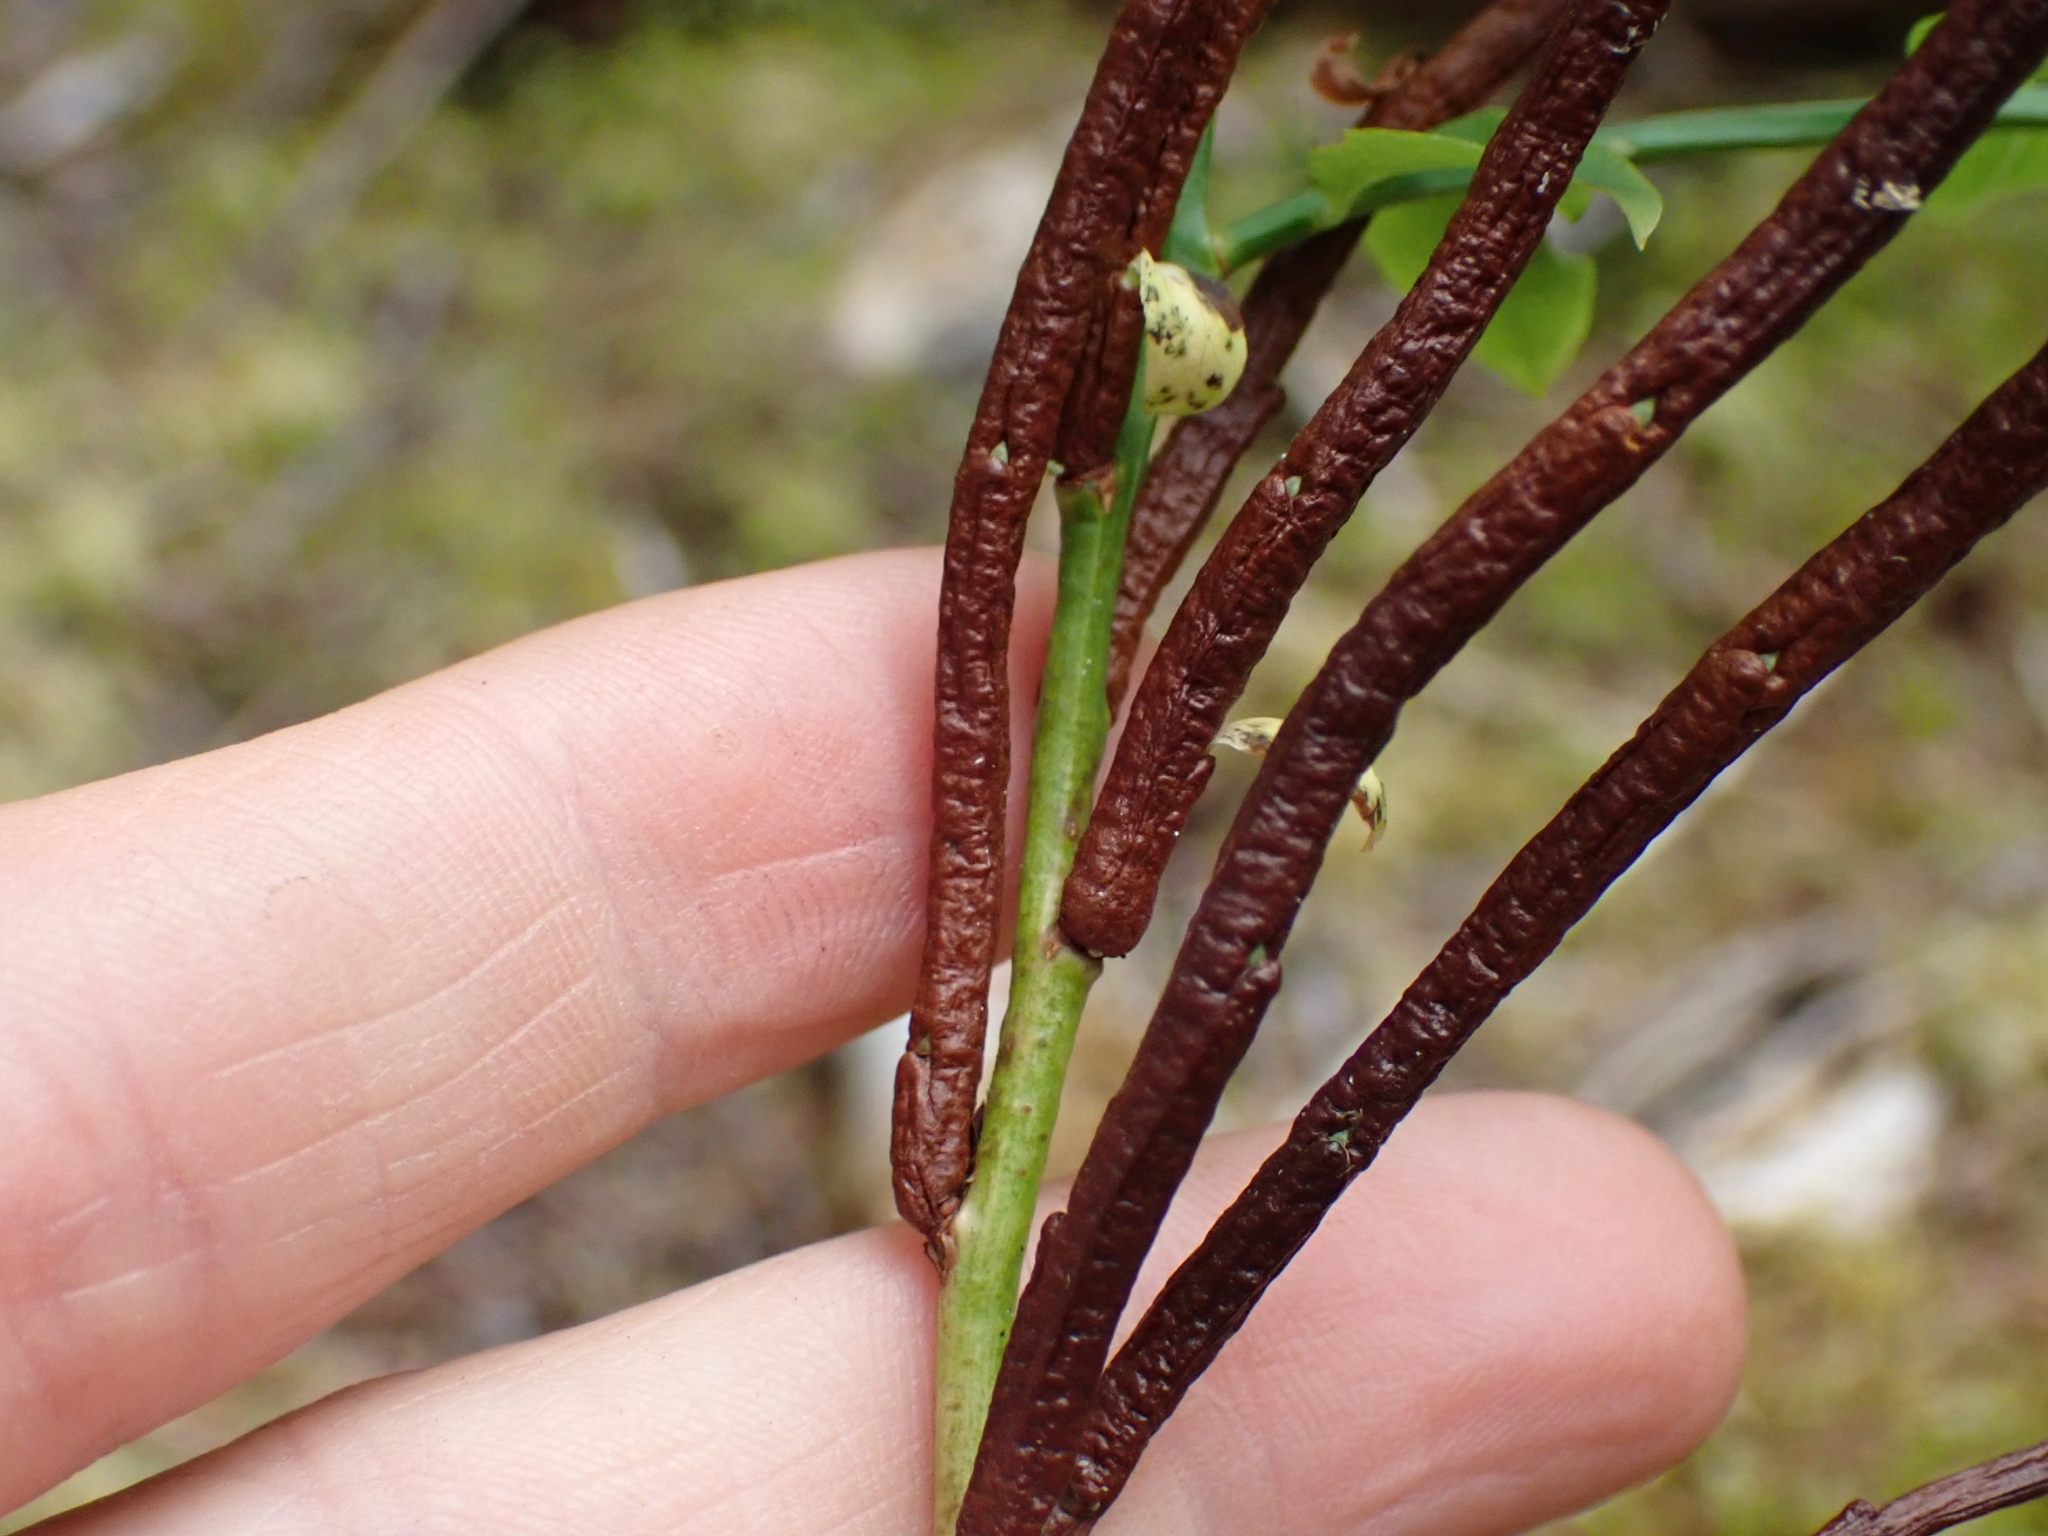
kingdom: Fungi
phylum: Basidiomycota
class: Pucciniomycetes
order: Pucciniales
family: Pucciniastraceae
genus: Calyptospora
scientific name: Calyptospora
